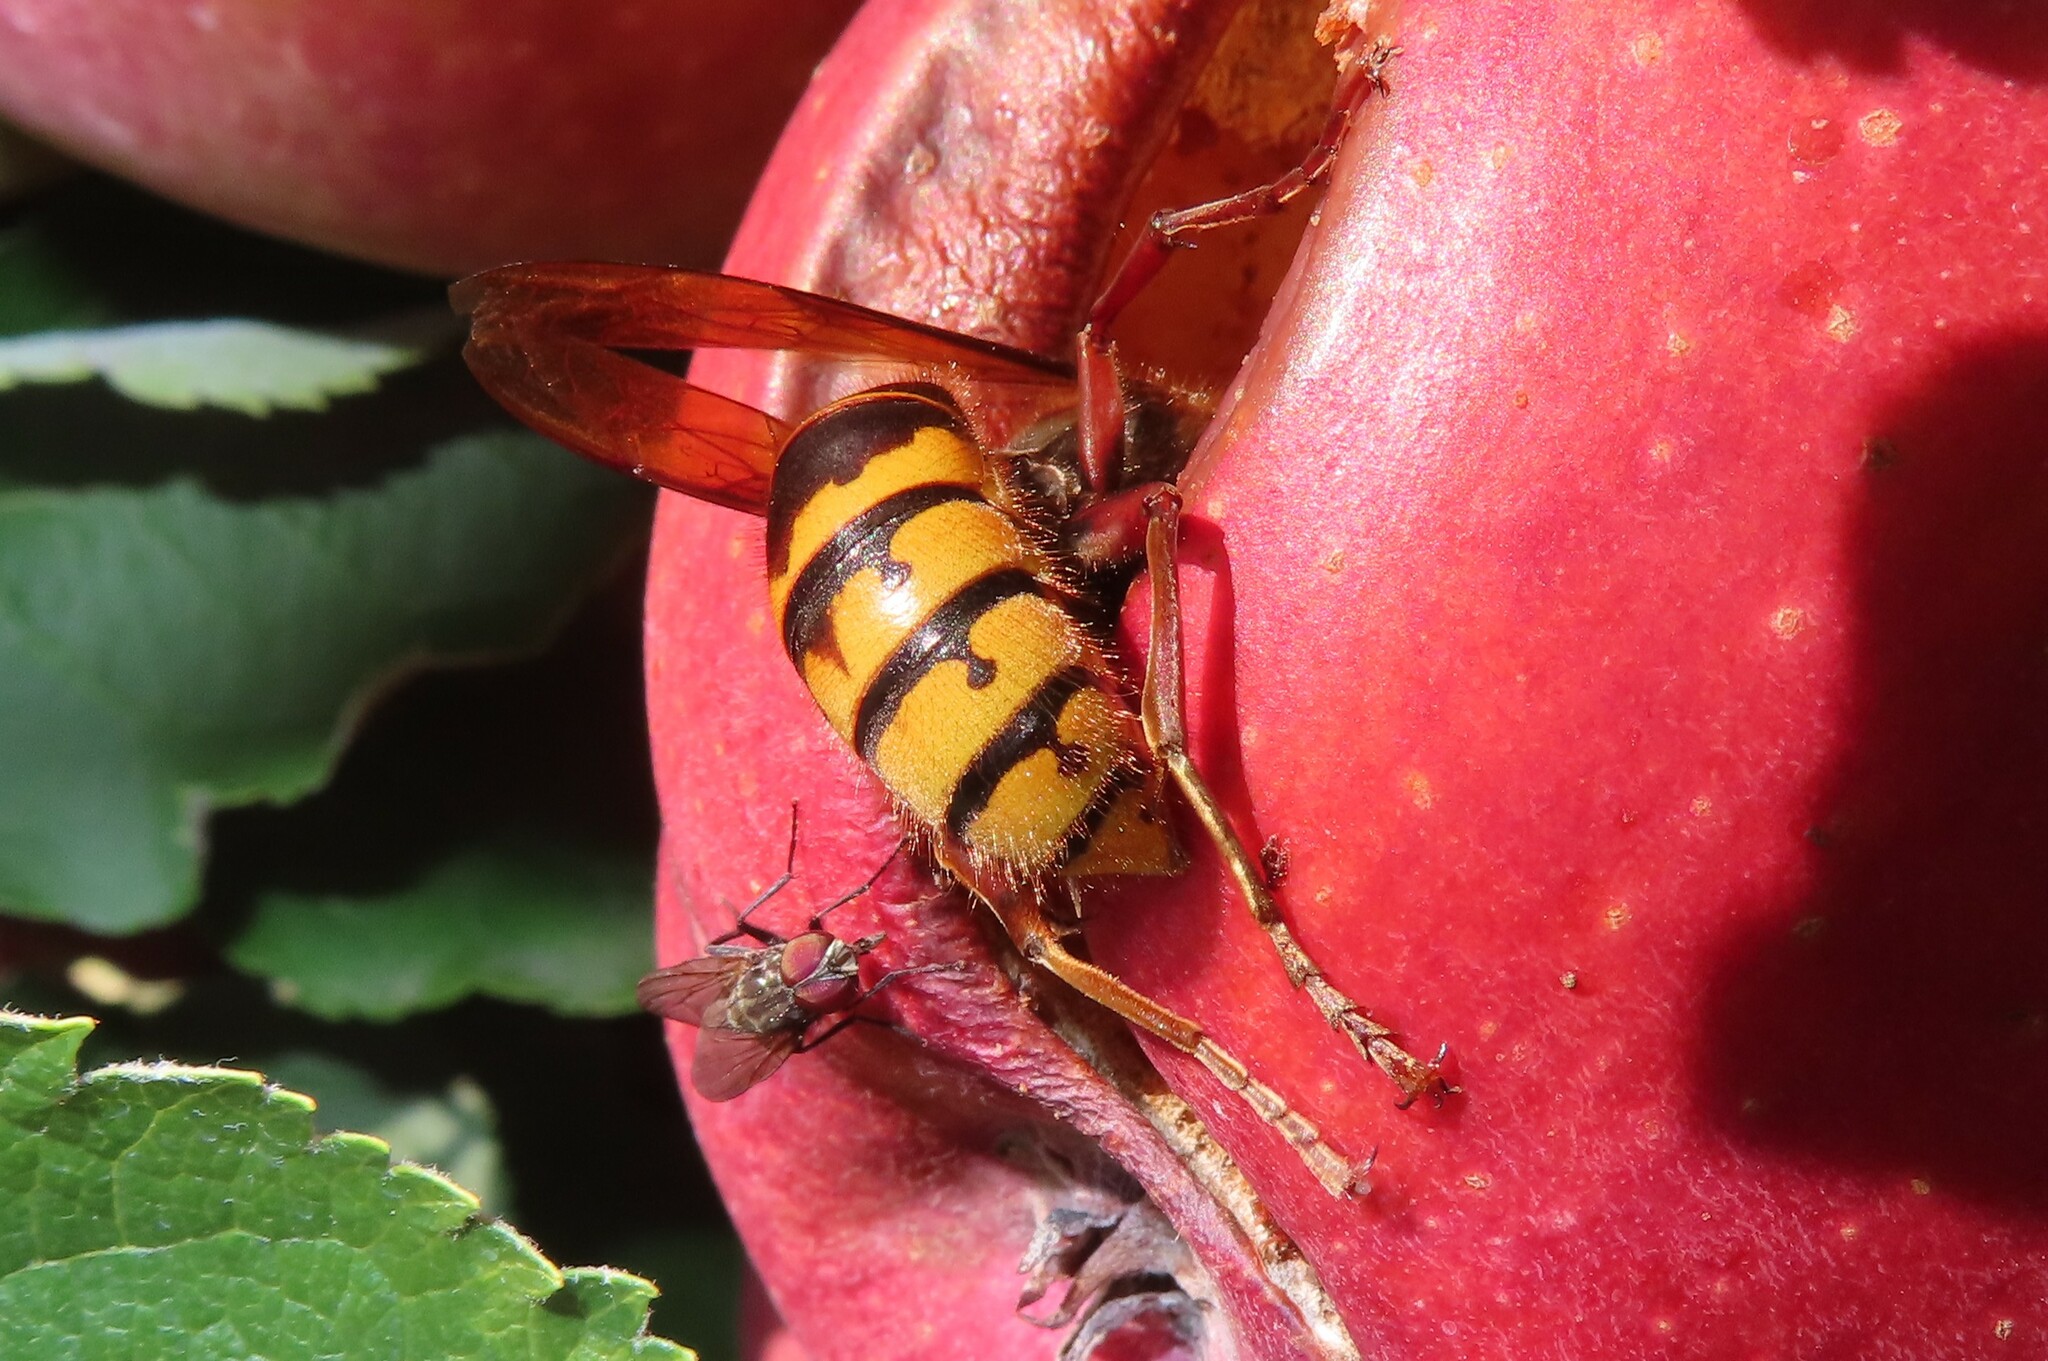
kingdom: Animalia
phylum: Arthropoda
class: Insecta
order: Hymenoptera
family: Vespidae
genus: Vespa
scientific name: Vespa crabro
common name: Hornet
